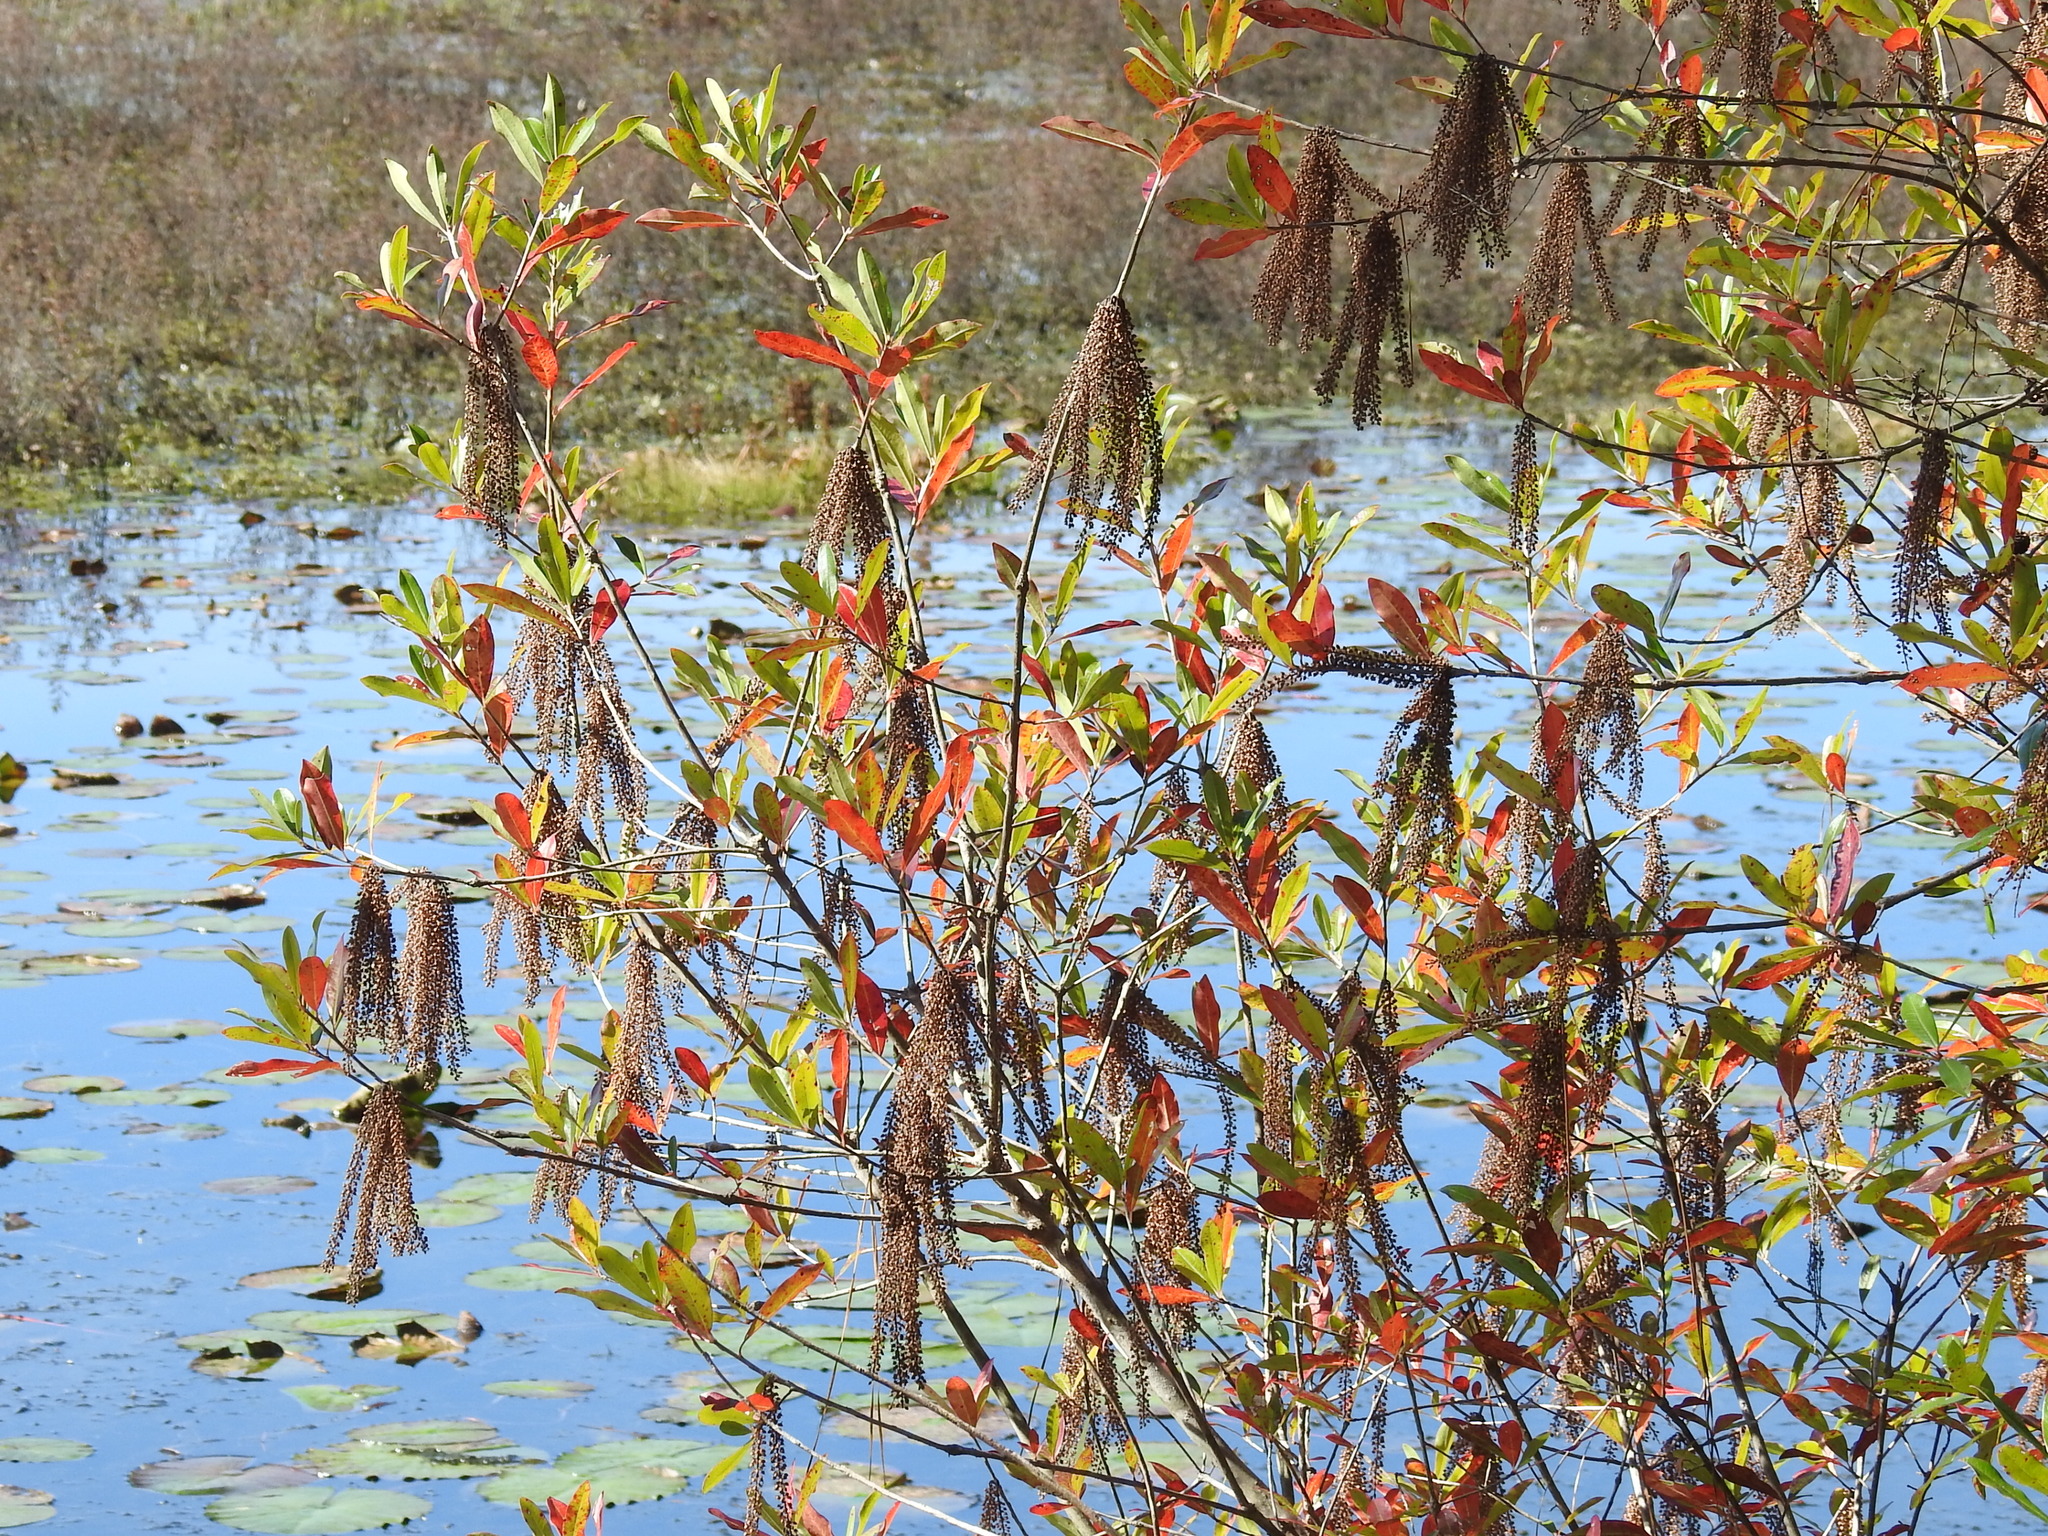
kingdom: Plantae
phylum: Tracheophyta
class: Magnoliopsida
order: Ericales
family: Cyrillaceae
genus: Cyrilla
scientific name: Cyrilla racemiflora
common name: Black titi
